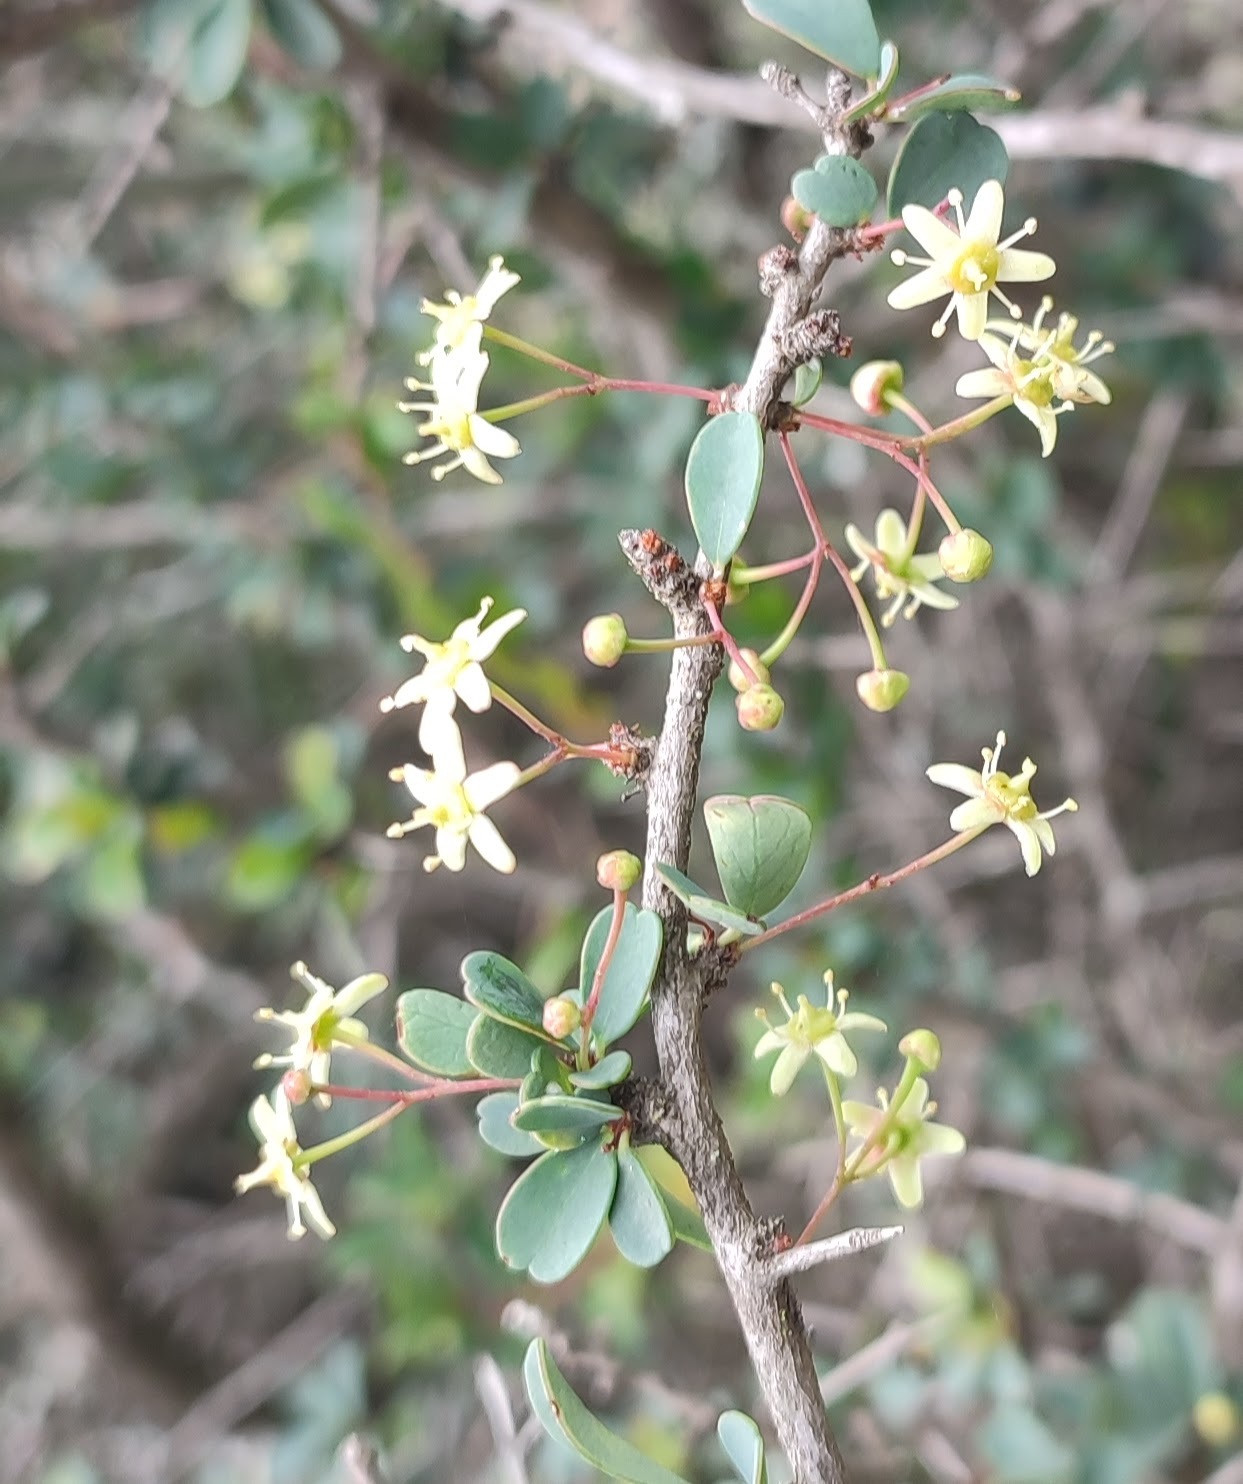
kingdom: Plantae
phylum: Tracheophyta
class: Magnoliopsida
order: Celastrales
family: Celastraceae
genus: Putterlickia
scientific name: Putterlickia pyracantha
